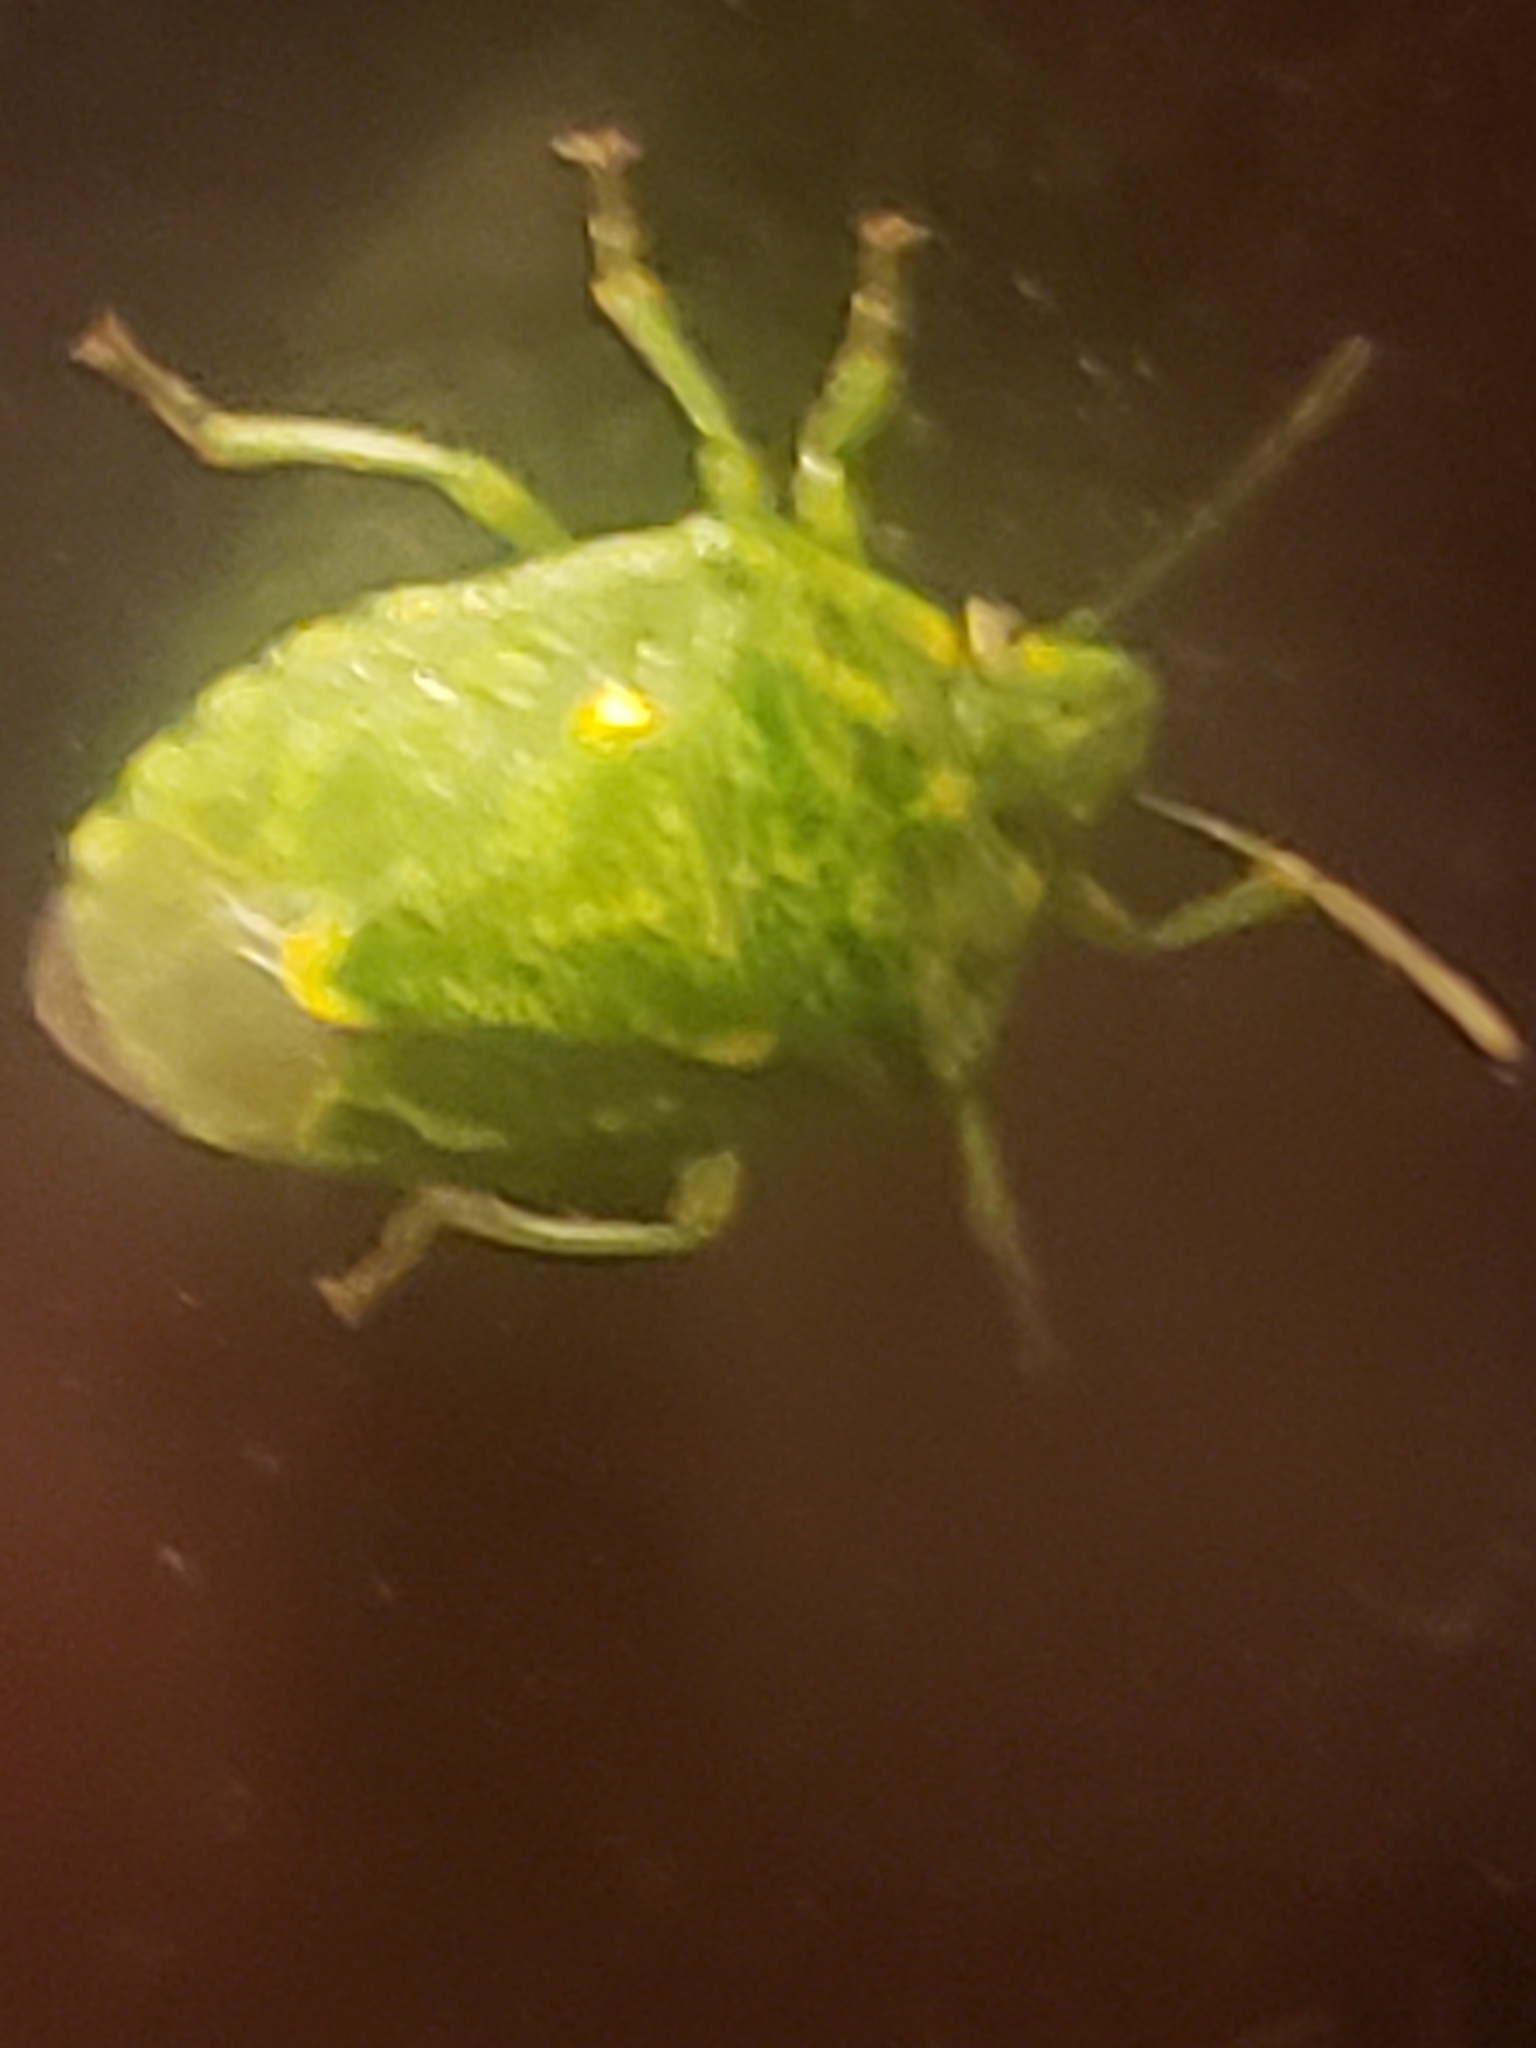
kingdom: Animalia
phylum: Arthropoda
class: Insecta
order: Hemiptera
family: Pentatomidae
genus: Banasa
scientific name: Banasa euchlora
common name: Cedar berry bug
